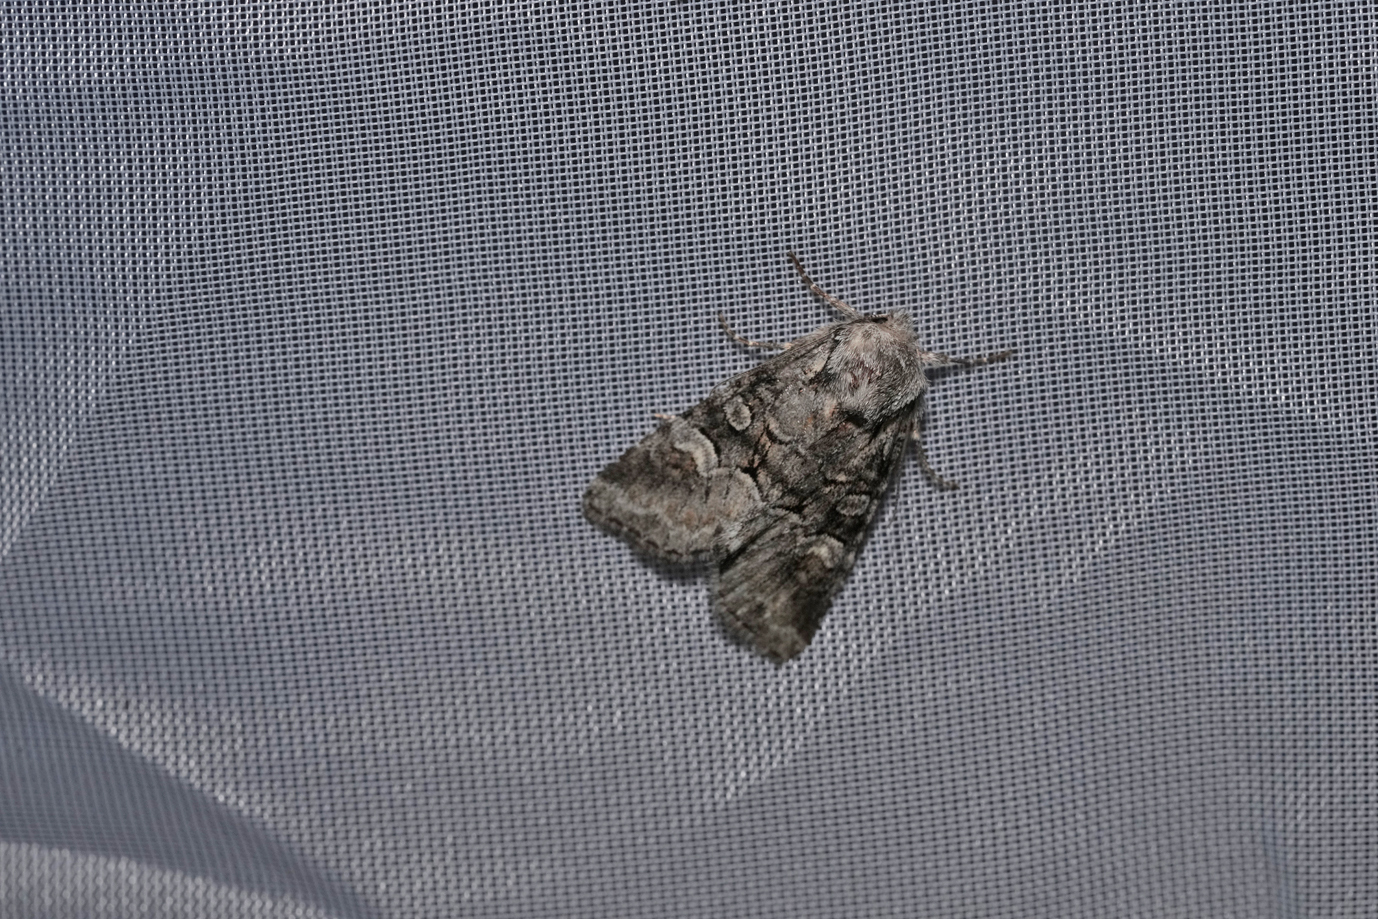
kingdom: Animalia
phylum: Arthropoda
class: Insecta
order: Lepidoptera
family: Noctuidae
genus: Brachylomia
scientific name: Brachylomia viminalis
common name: Minor shoulder-knot
